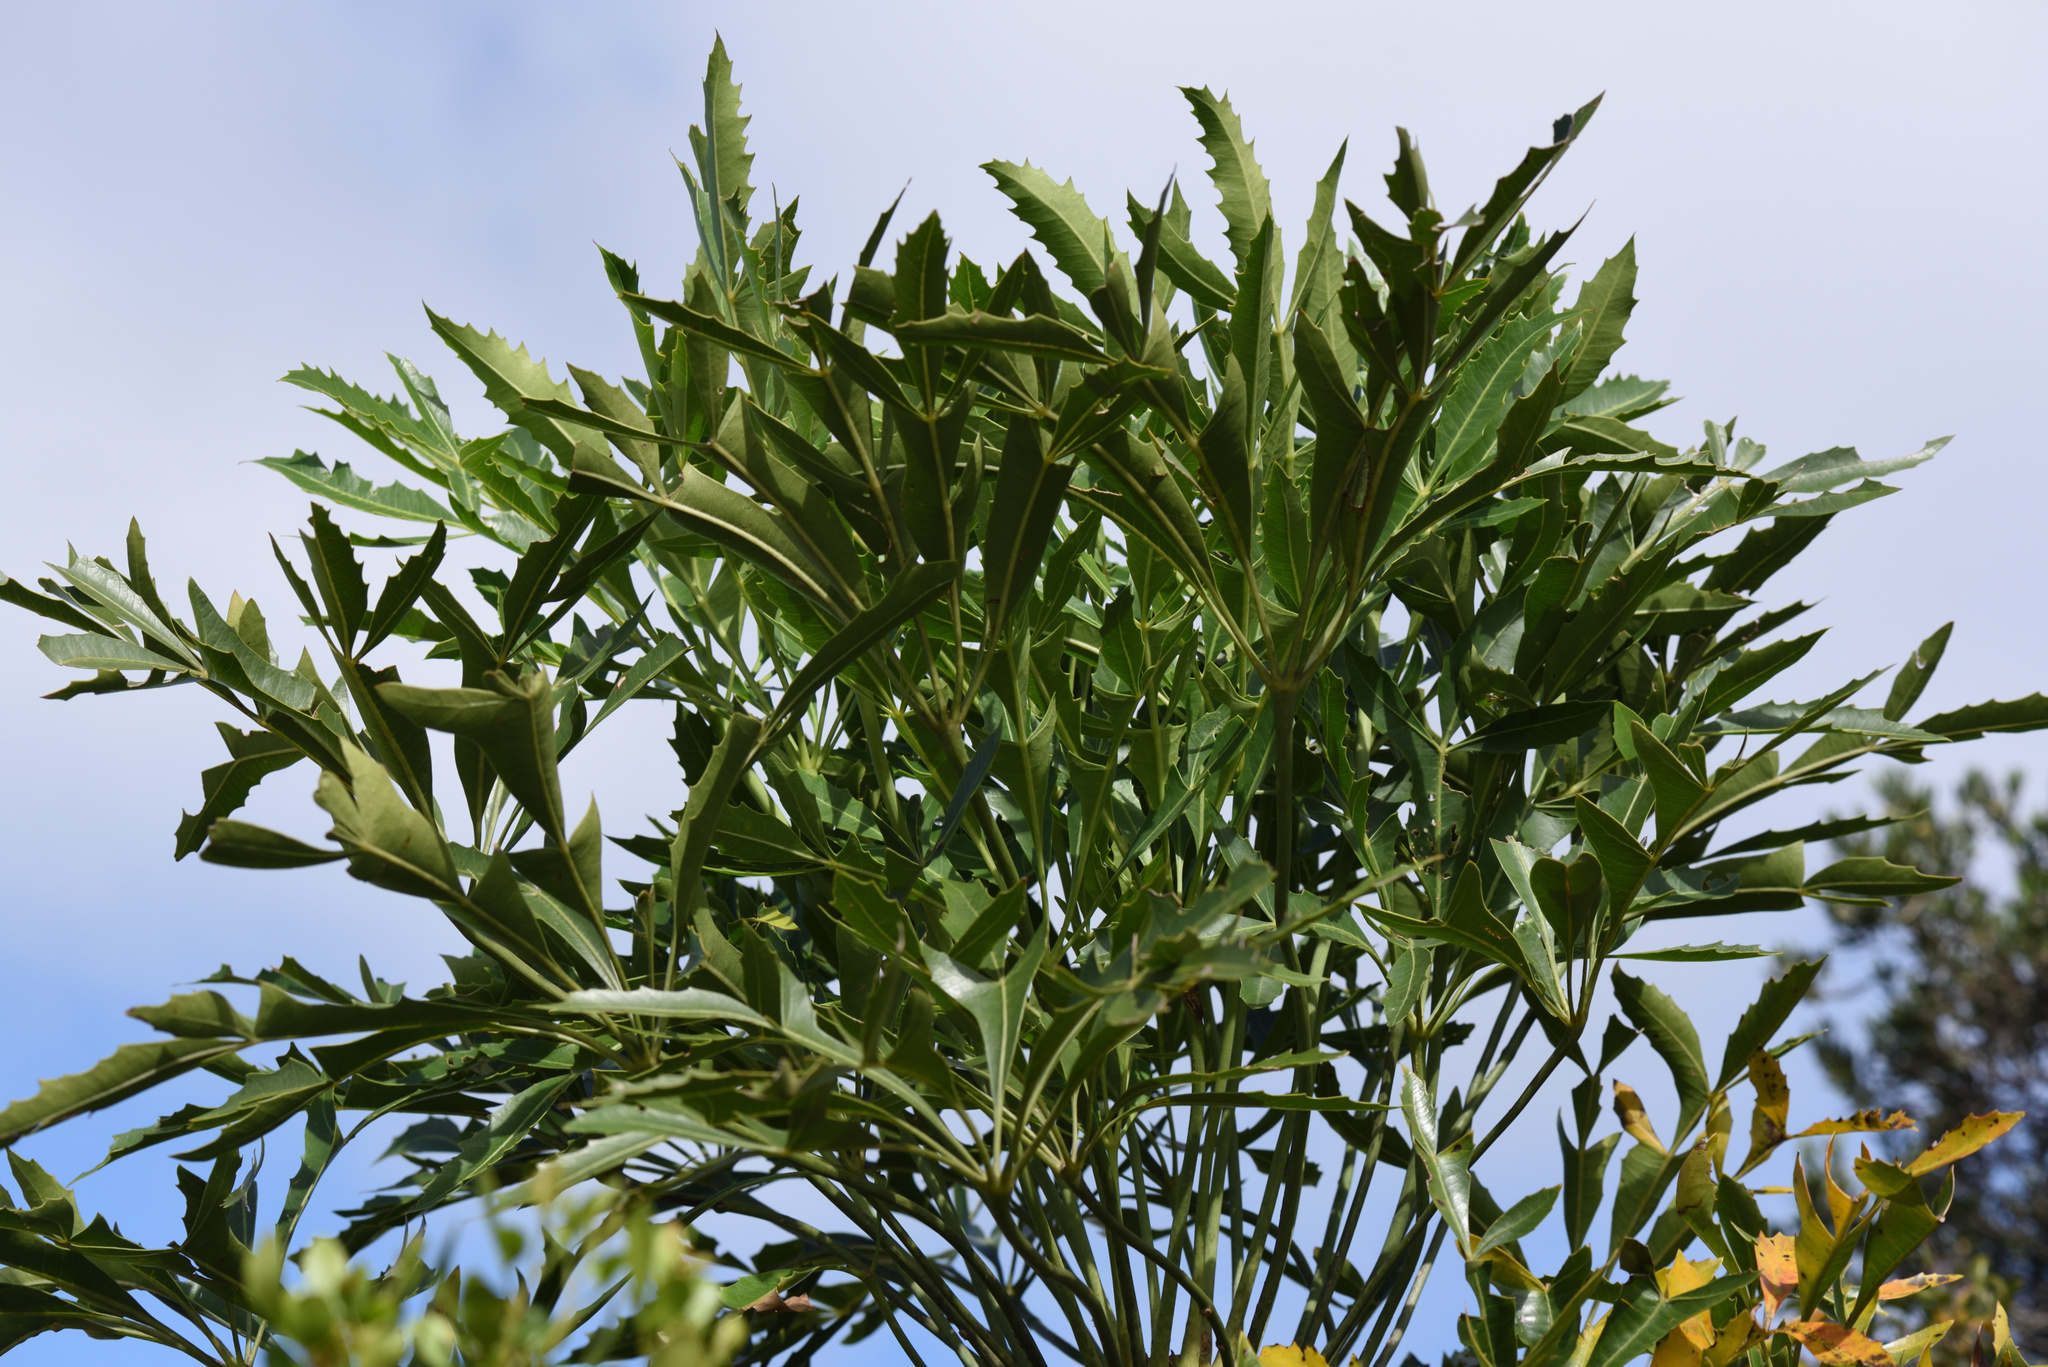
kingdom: Plantae
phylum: Tracheophyta
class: Magnoliopsida
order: Apiales
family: Araliaceae
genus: Cussonia
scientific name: Cussonia spicata
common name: Common cabbagetree
